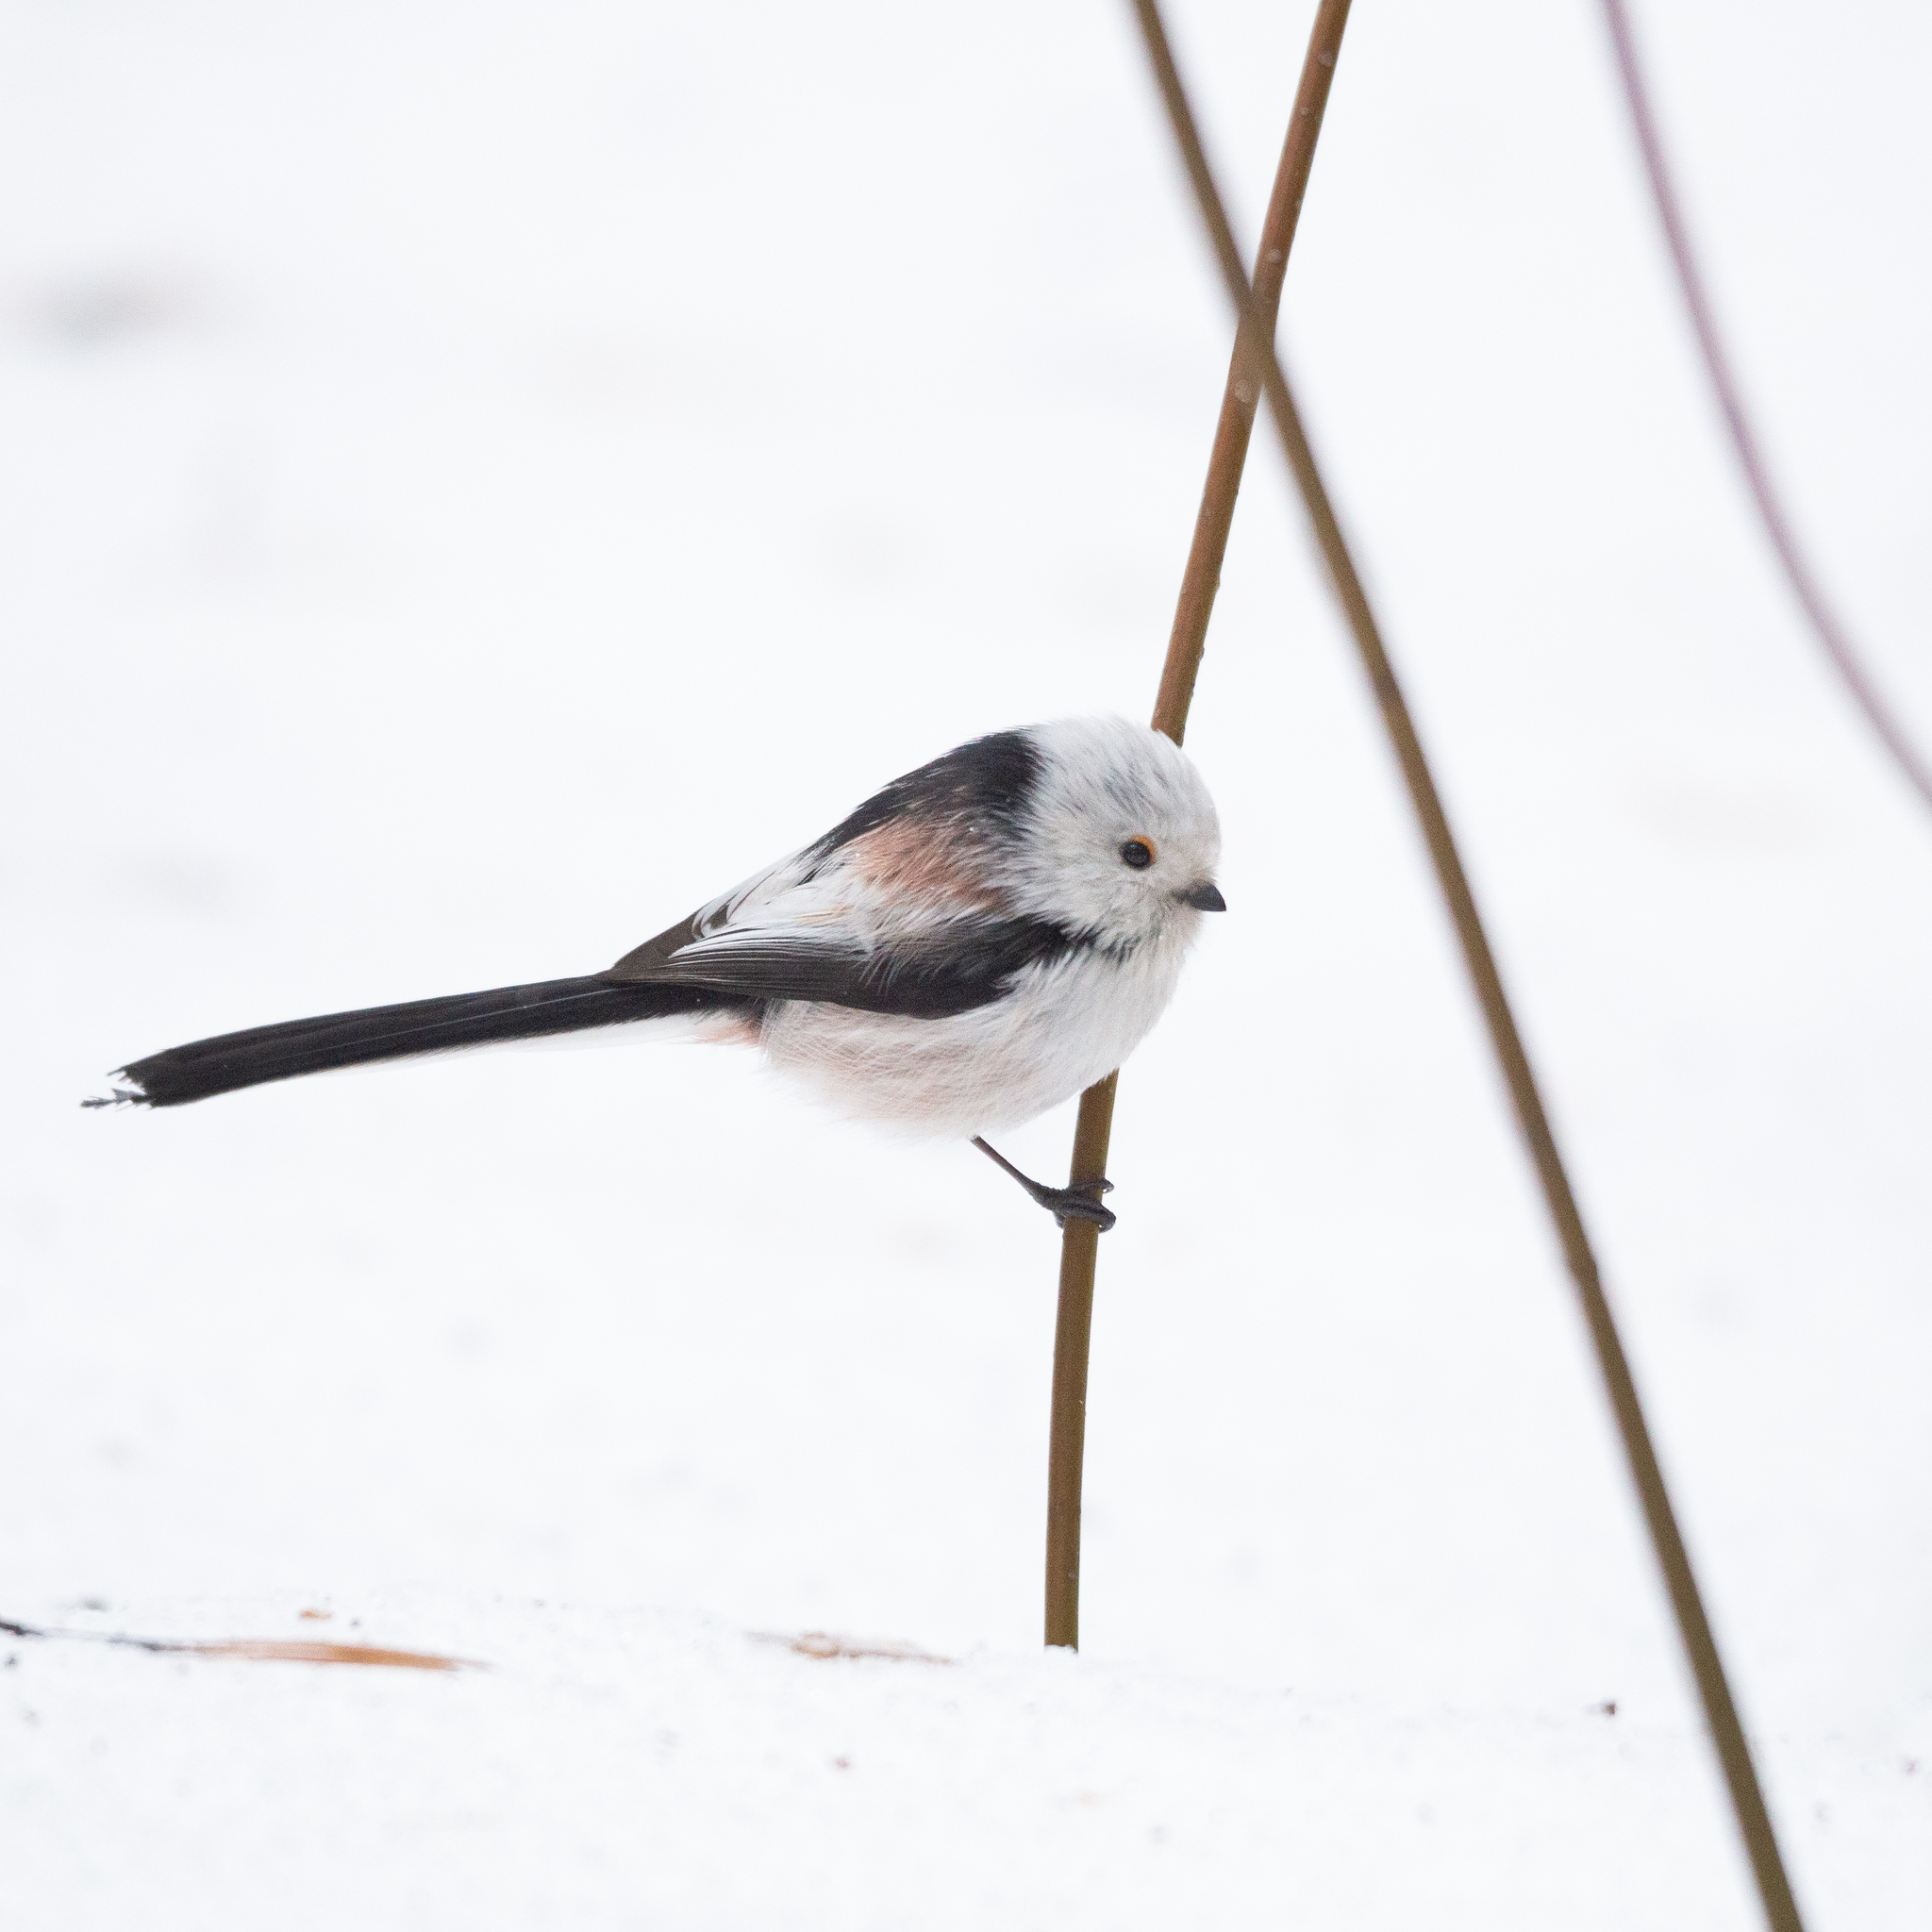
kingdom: Animalia
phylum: Chordata
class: Aves
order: Passeriformes
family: Aegithalidae
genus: Aegithalos
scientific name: Aegithalos caudatus
